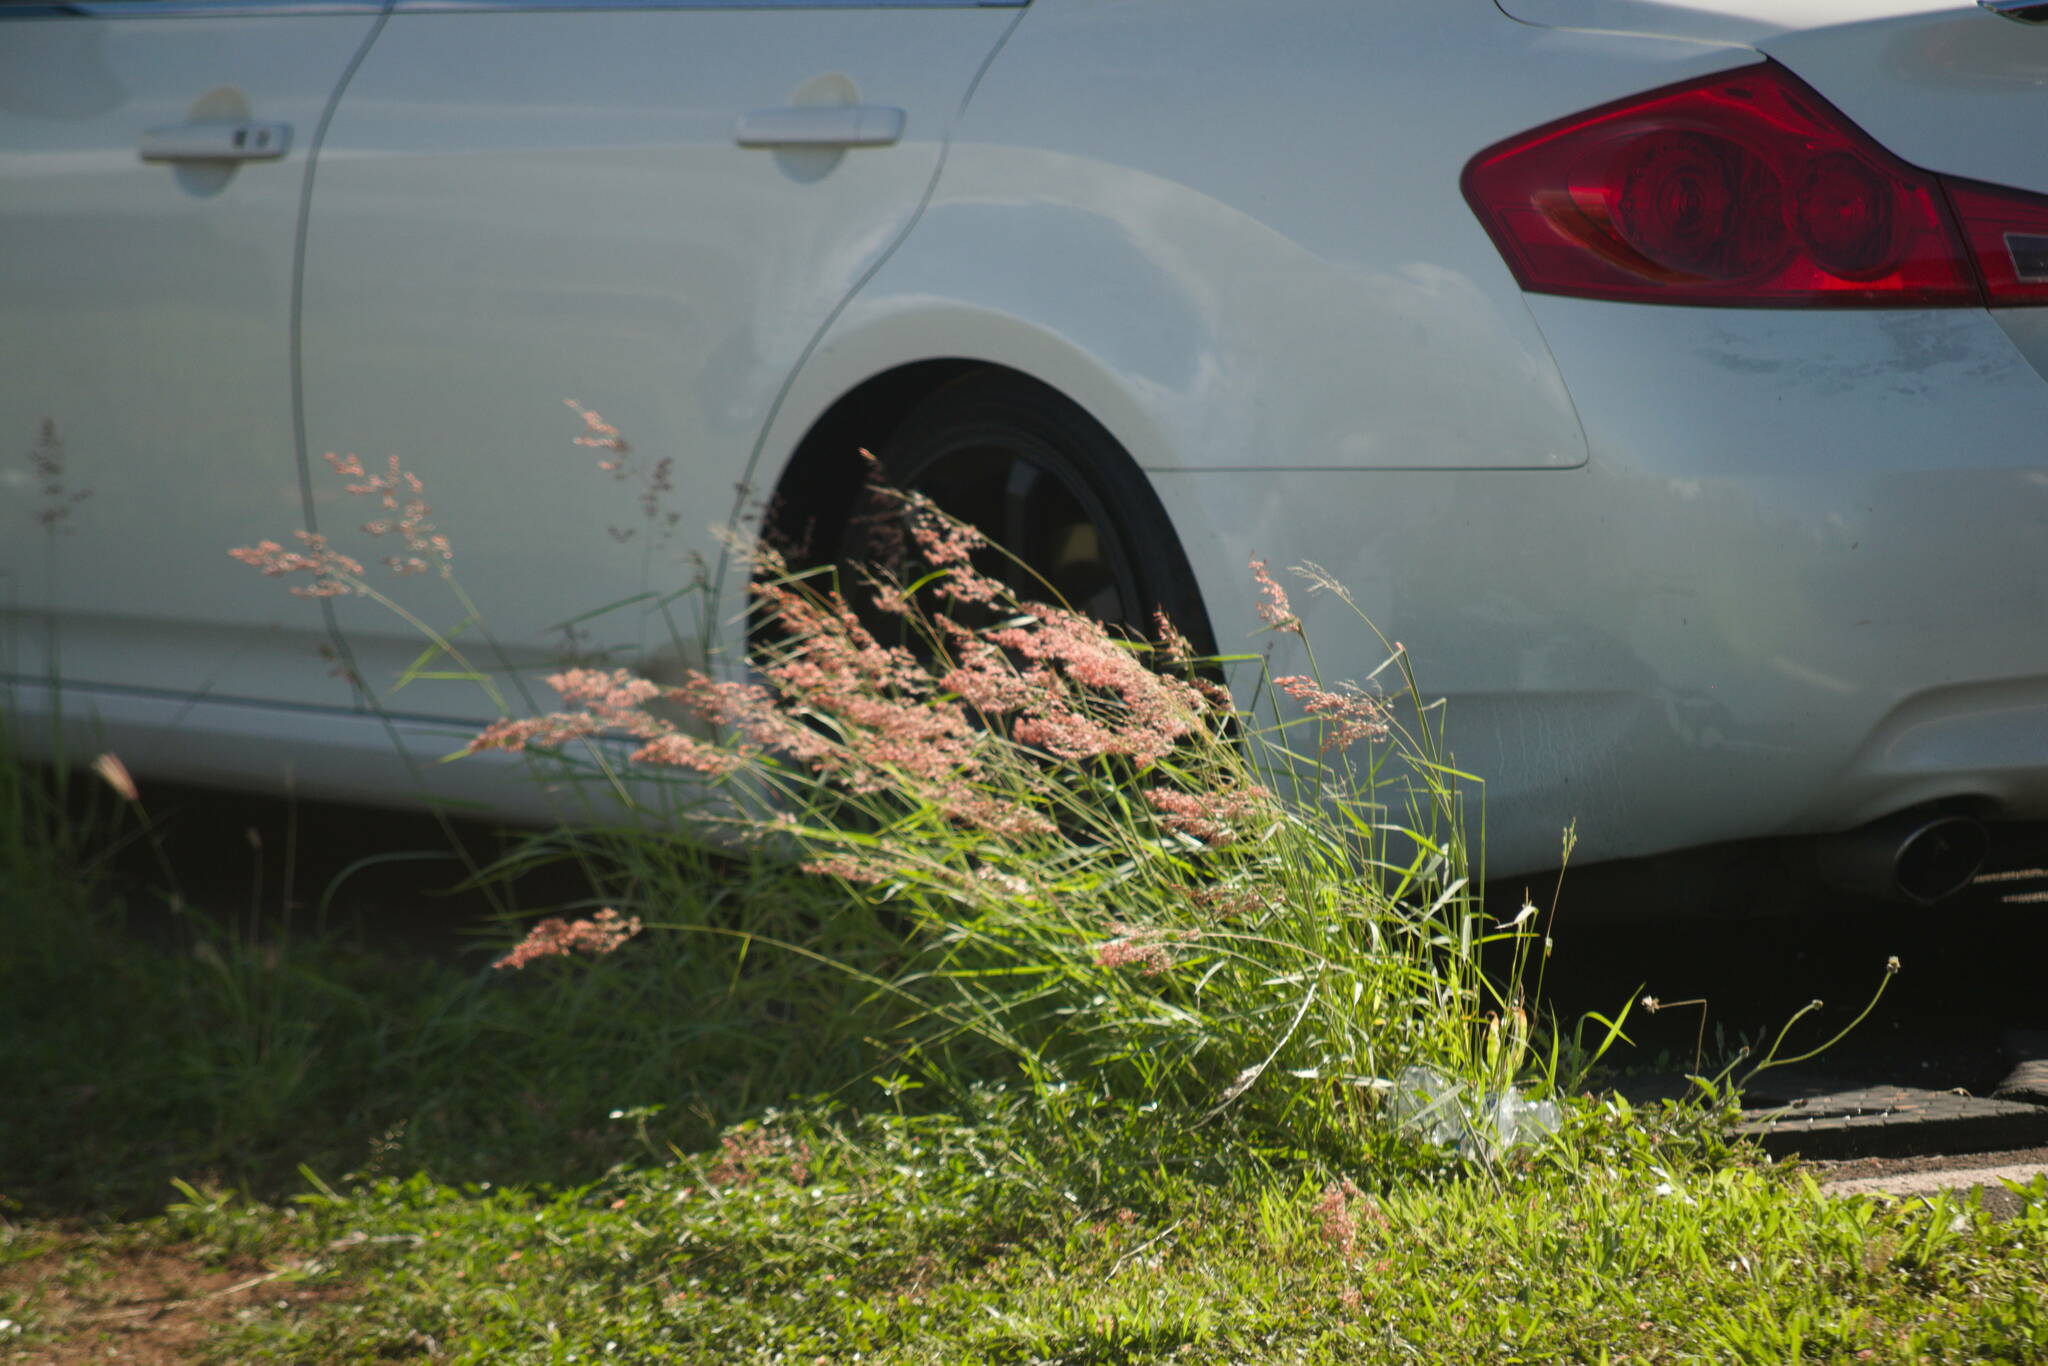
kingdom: Plantae
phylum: Tracheophyta
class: Liliopsida
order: Poales
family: Poaceae
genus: Melinis
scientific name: Melinis repens
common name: Rose natal grass
